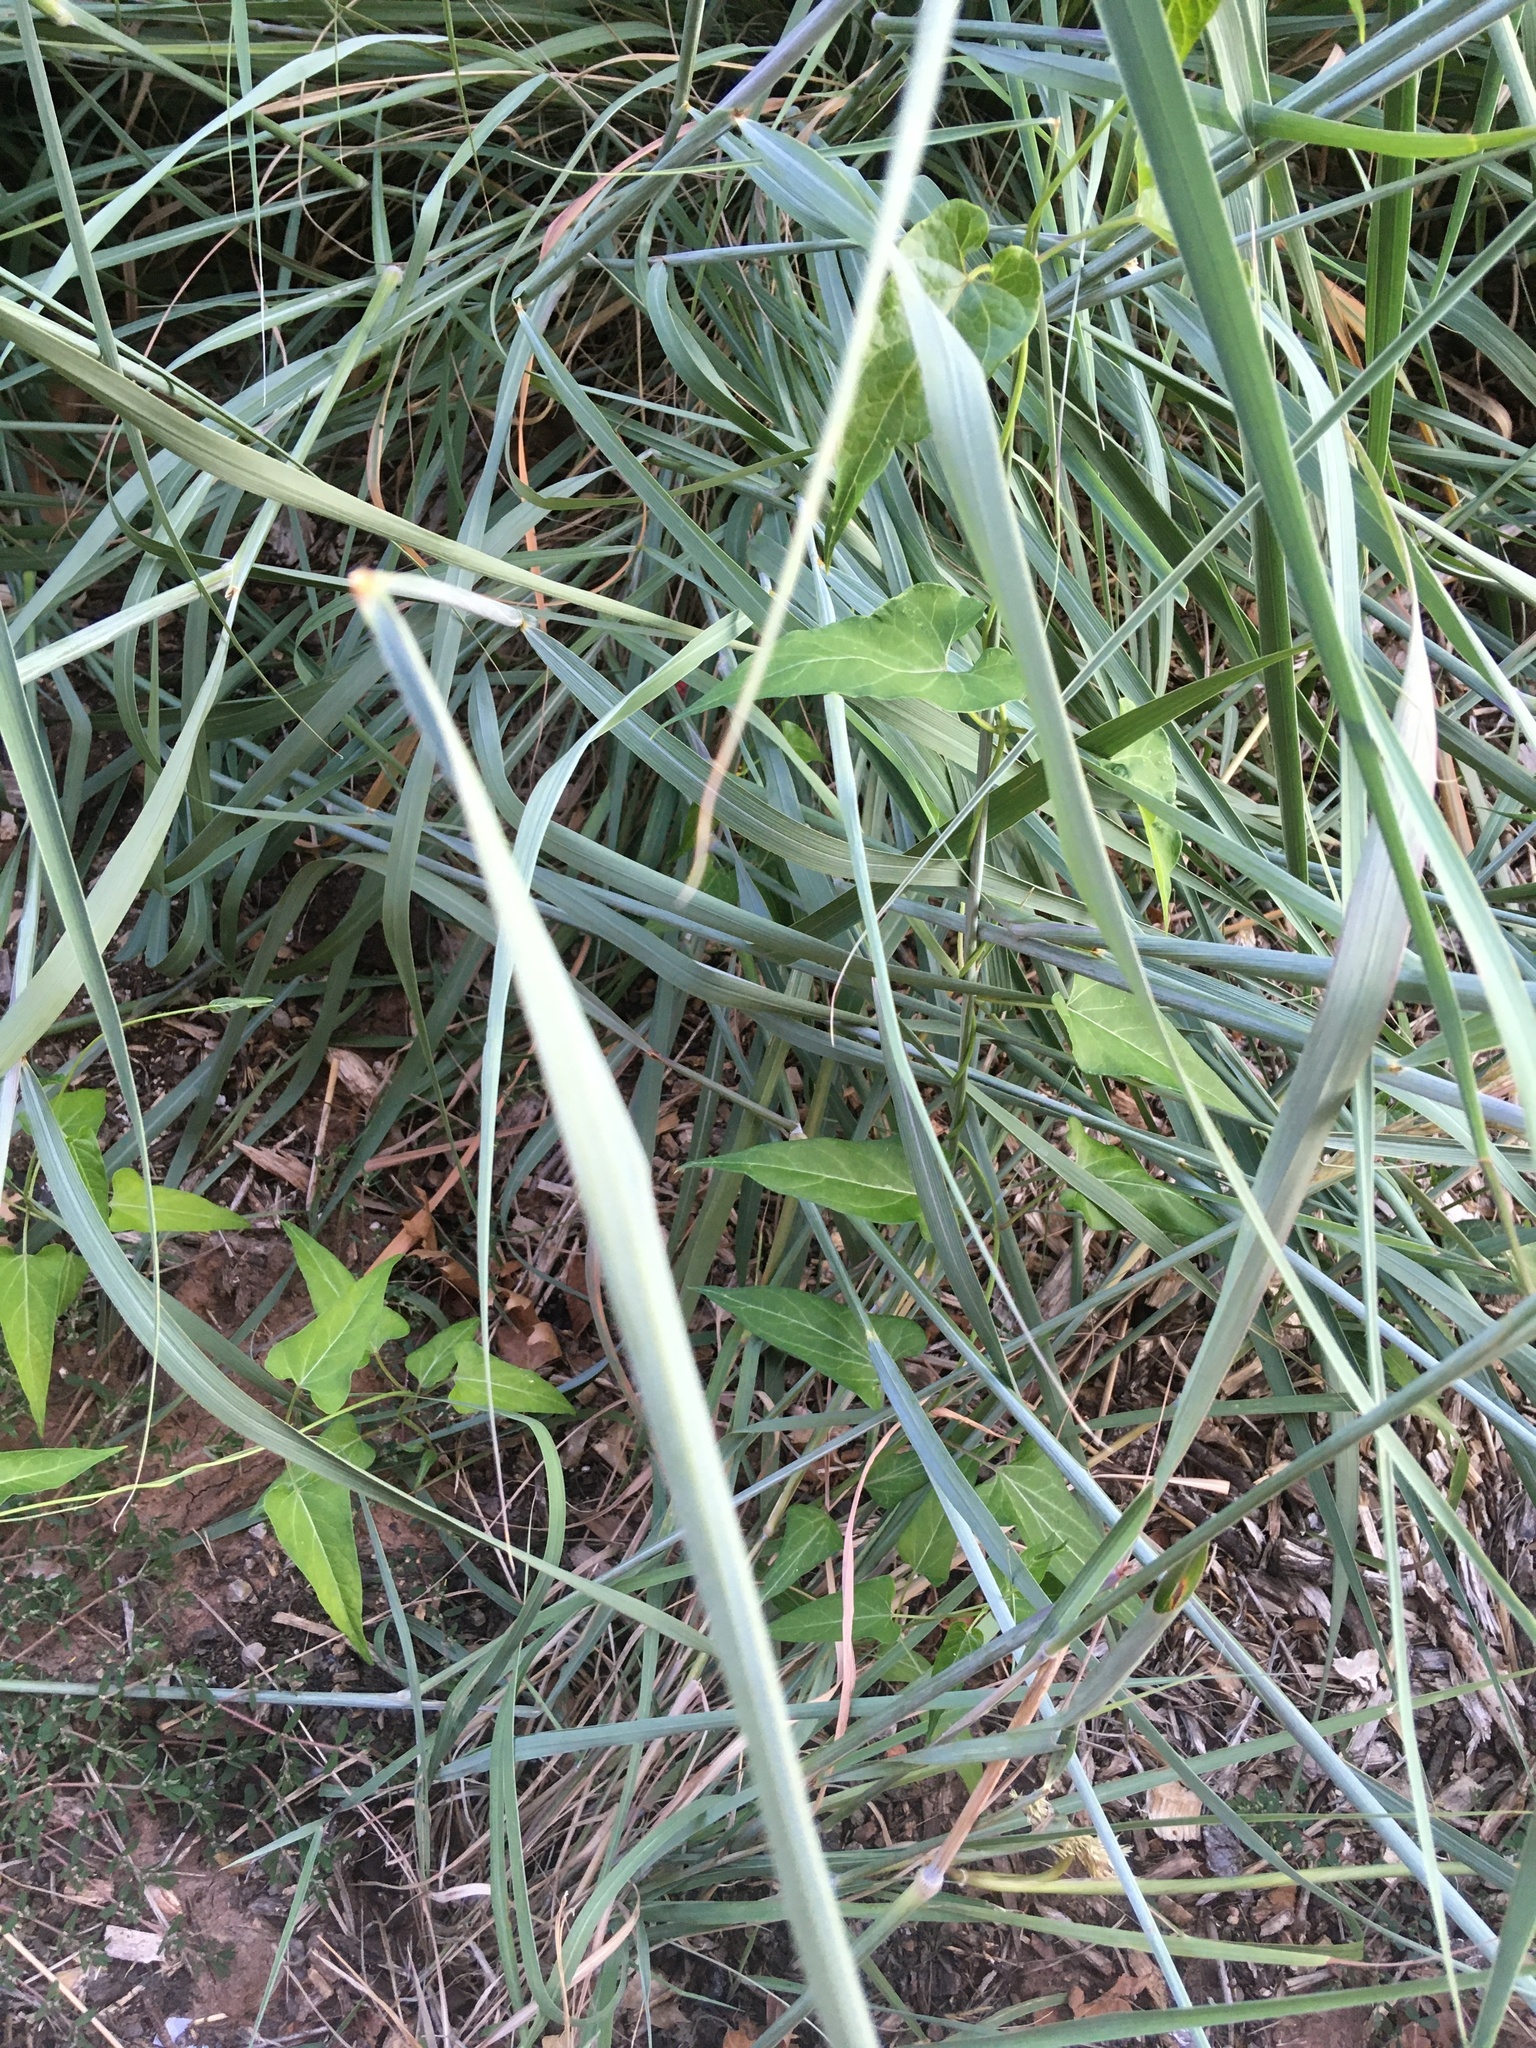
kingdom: Plantae
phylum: Tracheophyta
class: Magnoliopsida
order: Gentianales
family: Apocynaceae
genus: Cynanchum
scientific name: Cynanchum laeve
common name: Sandvine
